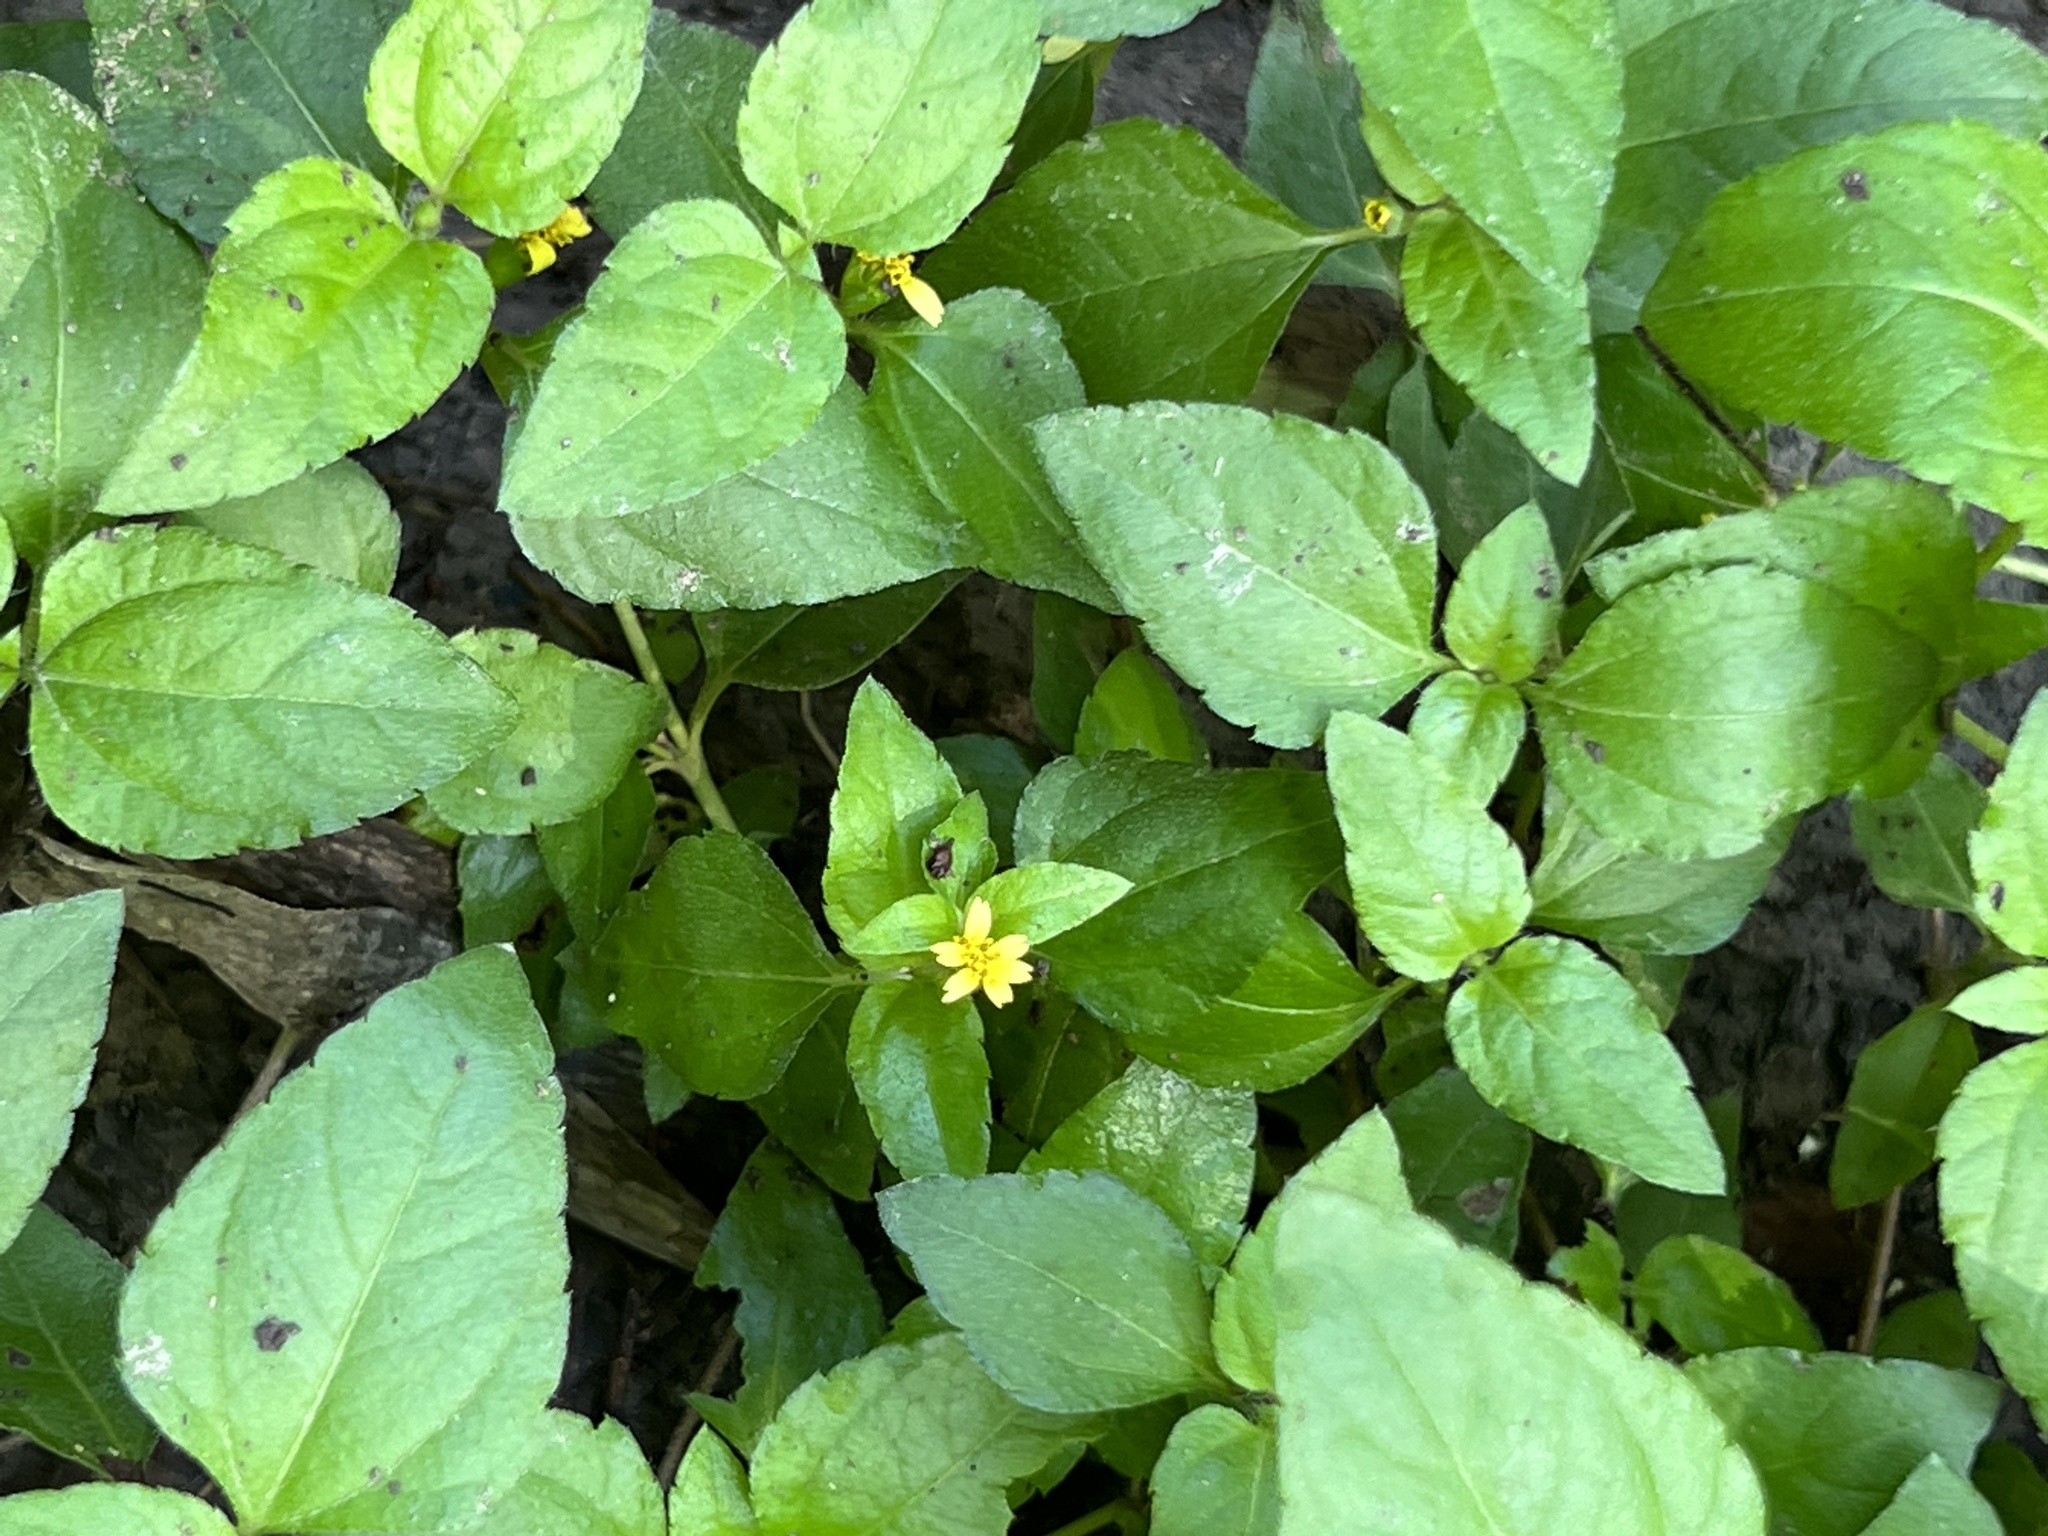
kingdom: Plantae
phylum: Tracheophyta
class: Magnoliopsida
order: Asterales
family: Asteraceae
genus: Calyptocarpus
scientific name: Calyptocarpus vialis
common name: Straggler daisy
